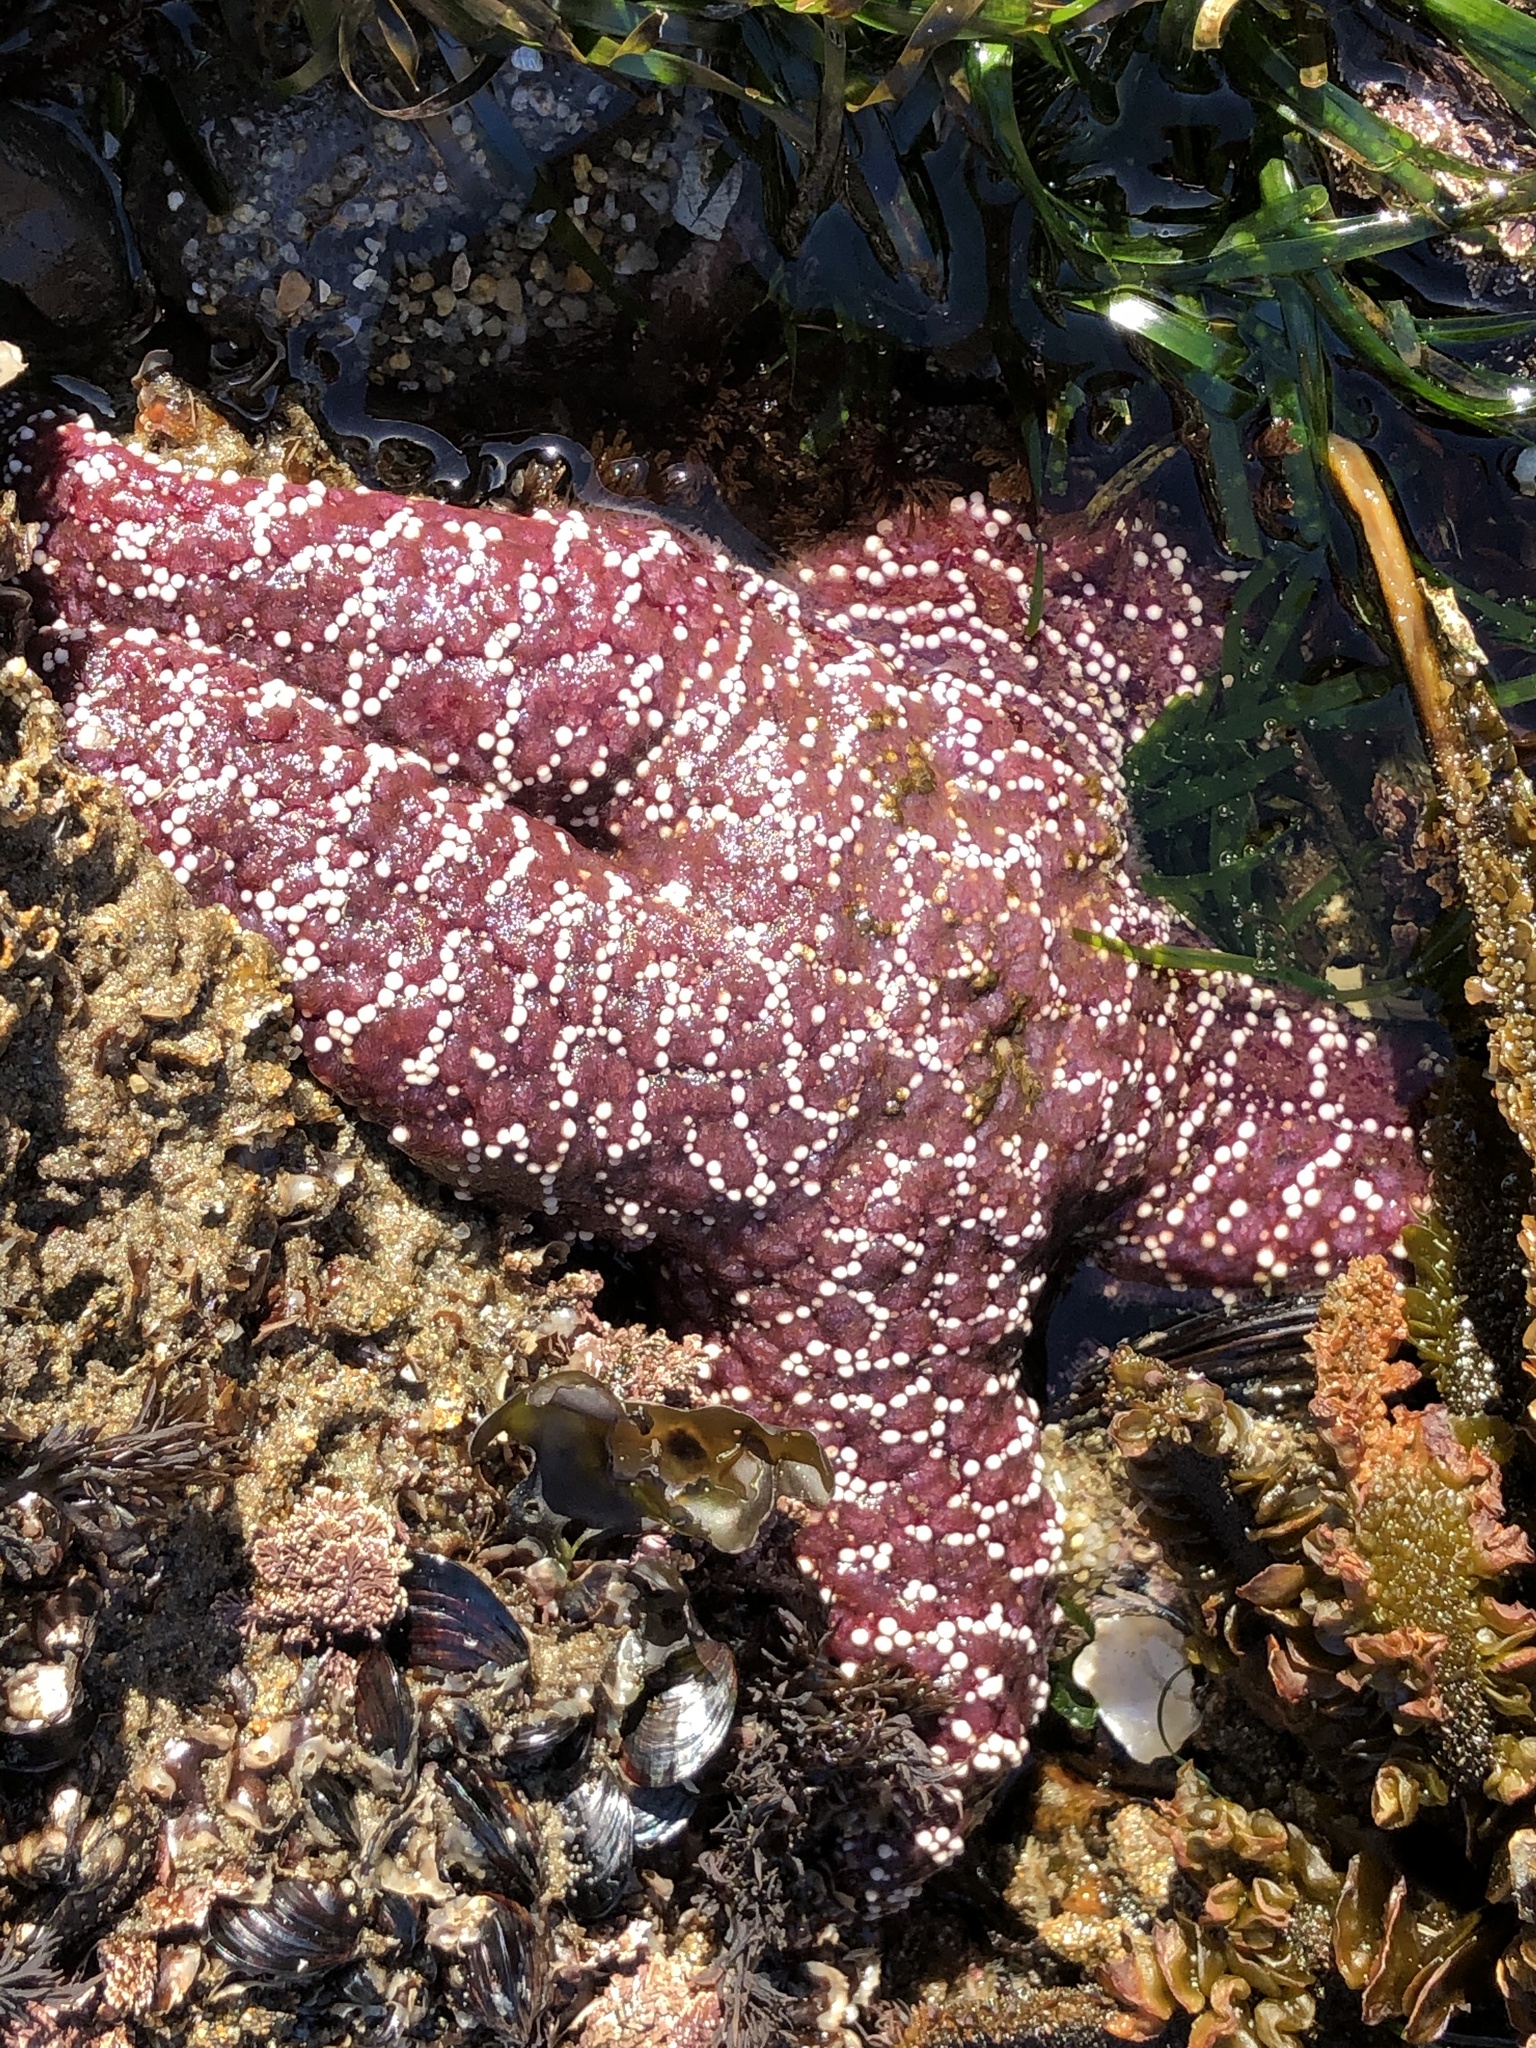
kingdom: Animalia
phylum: Echinodermata
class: Asteroidea
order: Forcipulatida
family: Asteriidae
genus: Pisaster
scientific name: Pisaster ochraceus
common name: Ochre stars
